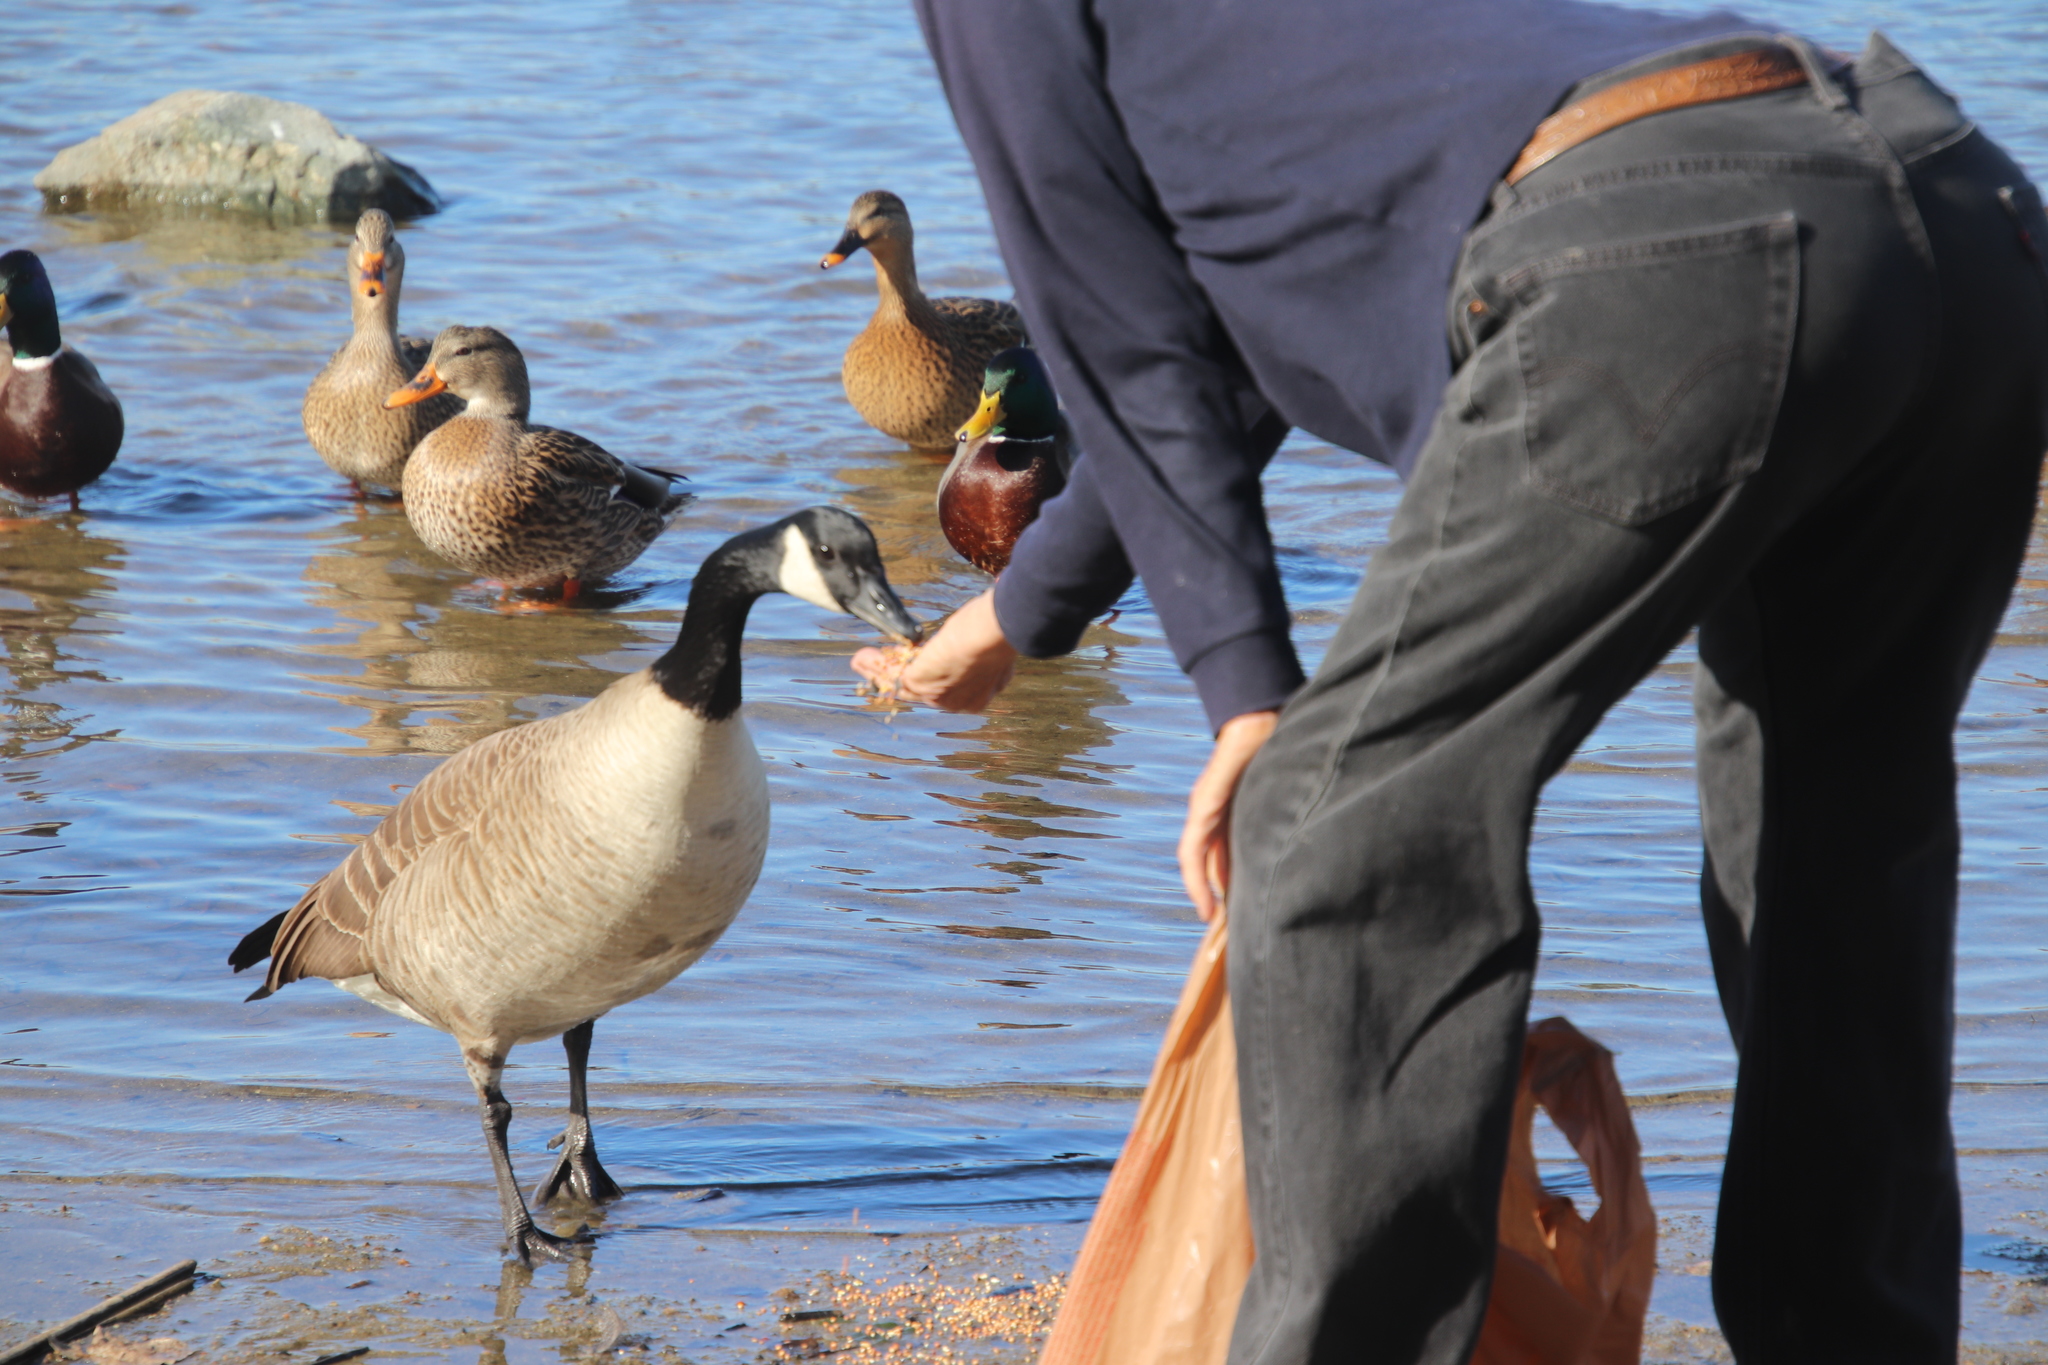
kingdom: Animalia
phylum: Chordata
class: Aves
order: Anseriformes
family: Anatidae
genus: Branta
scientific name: Branta canadensis
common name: Canada goose
